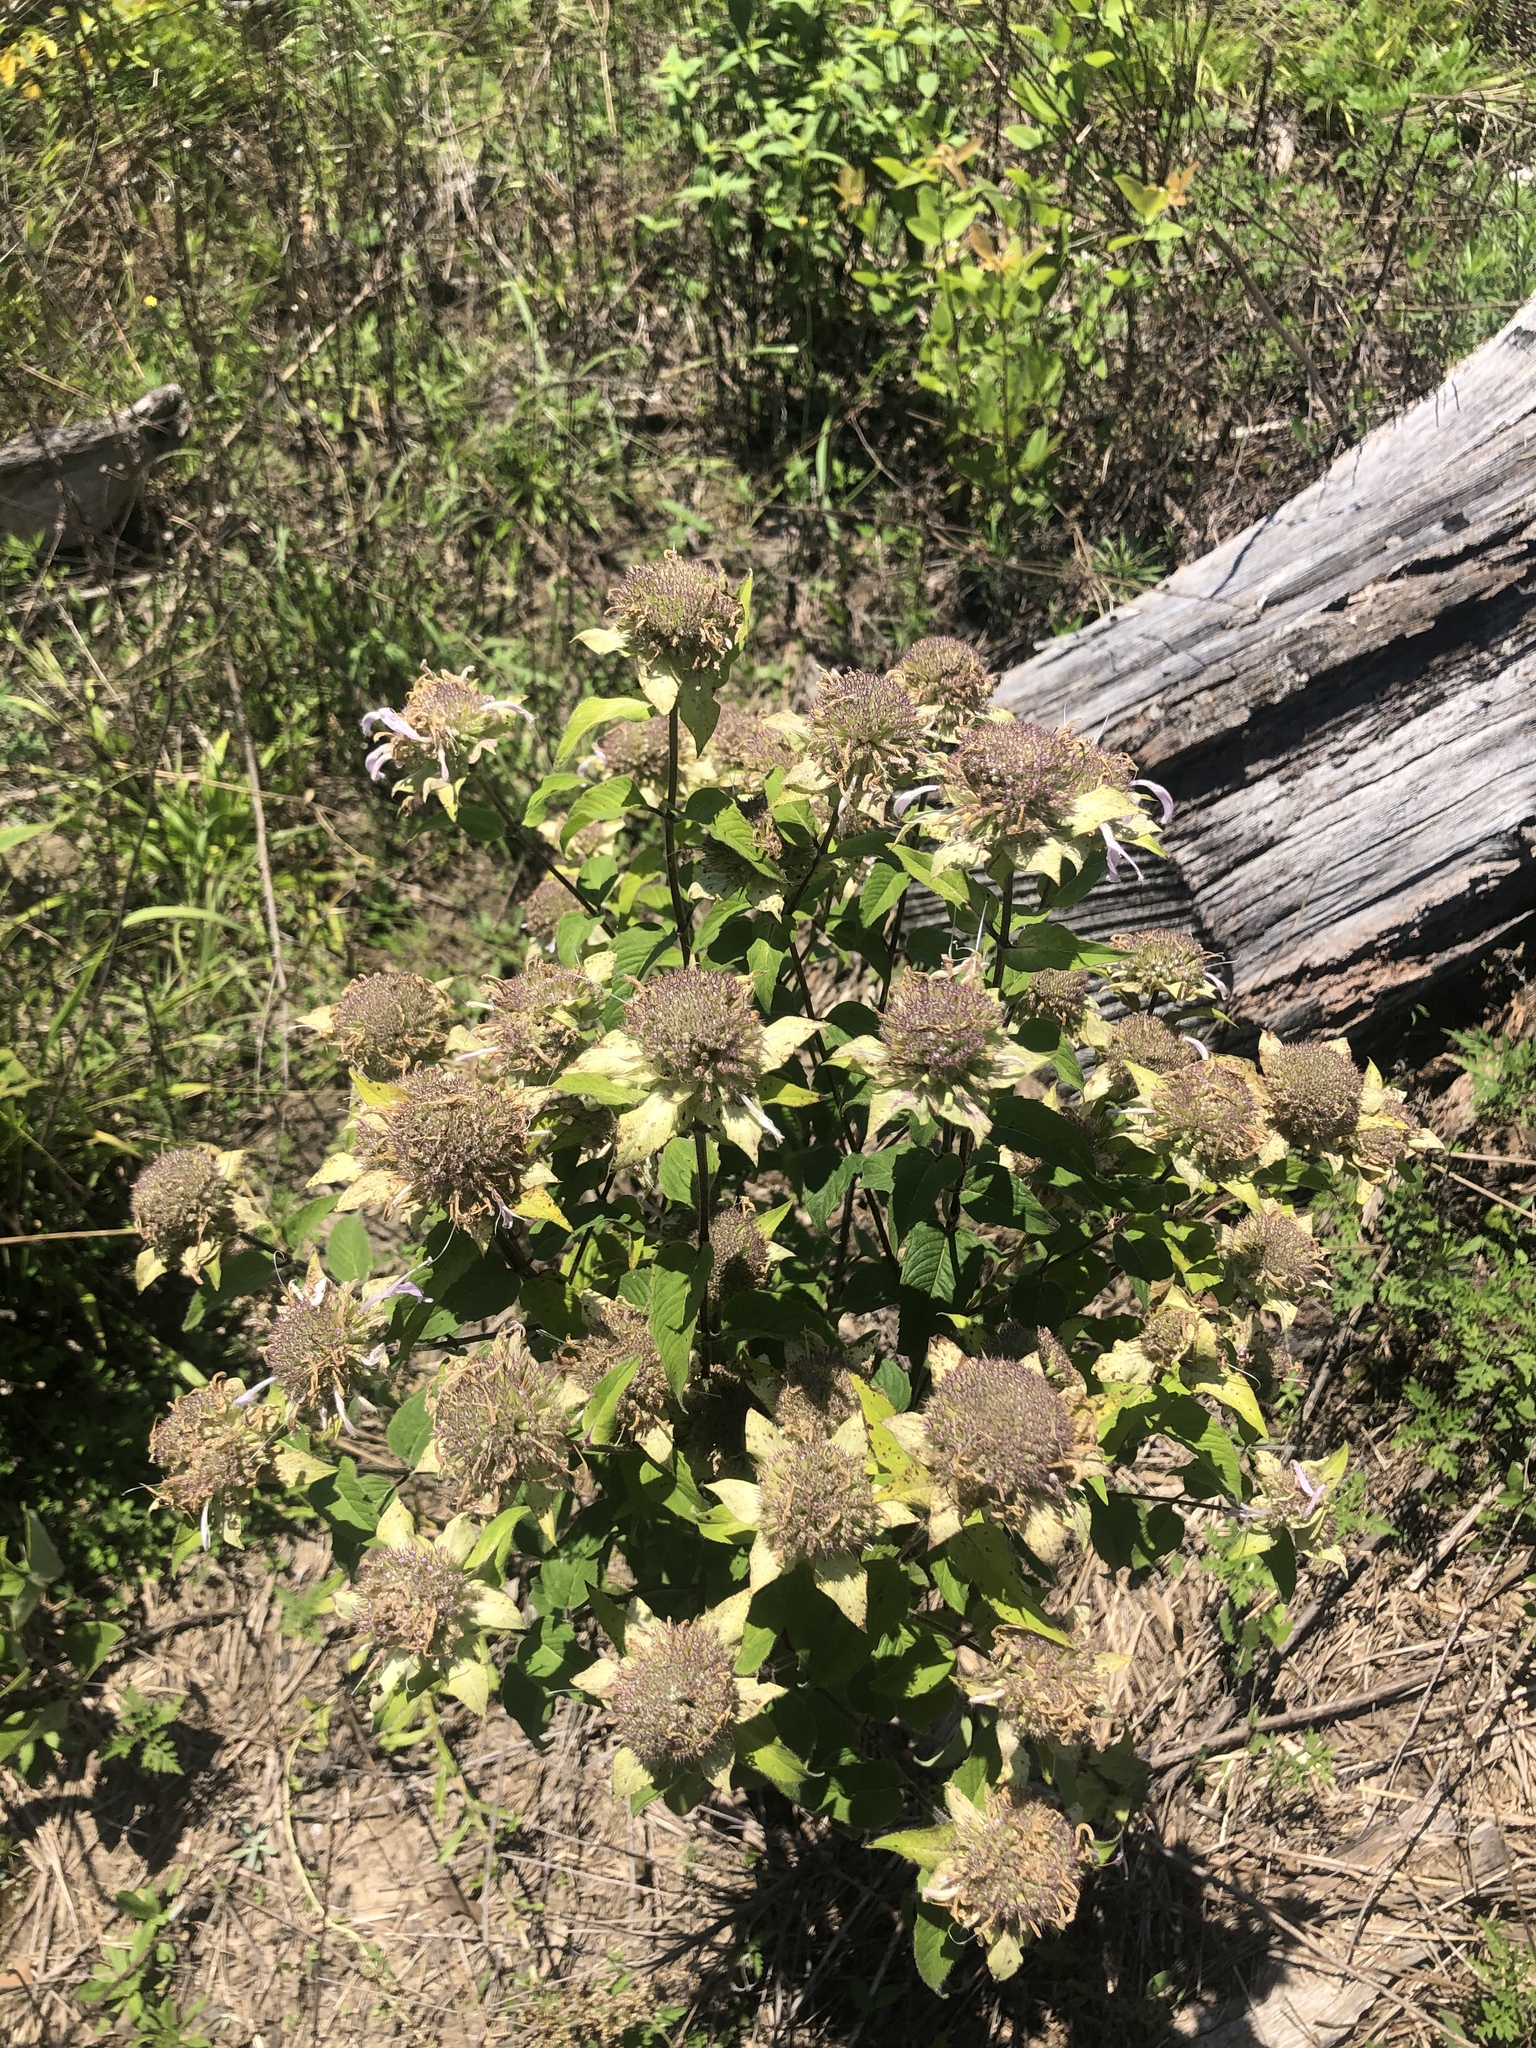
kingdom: Plantae
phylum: Tracheophyta
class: Magnoliopsida
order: Lamiales
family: Lamiaceae
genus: Monarda
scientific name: Monarda fistulosa
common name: Purple beebalm
